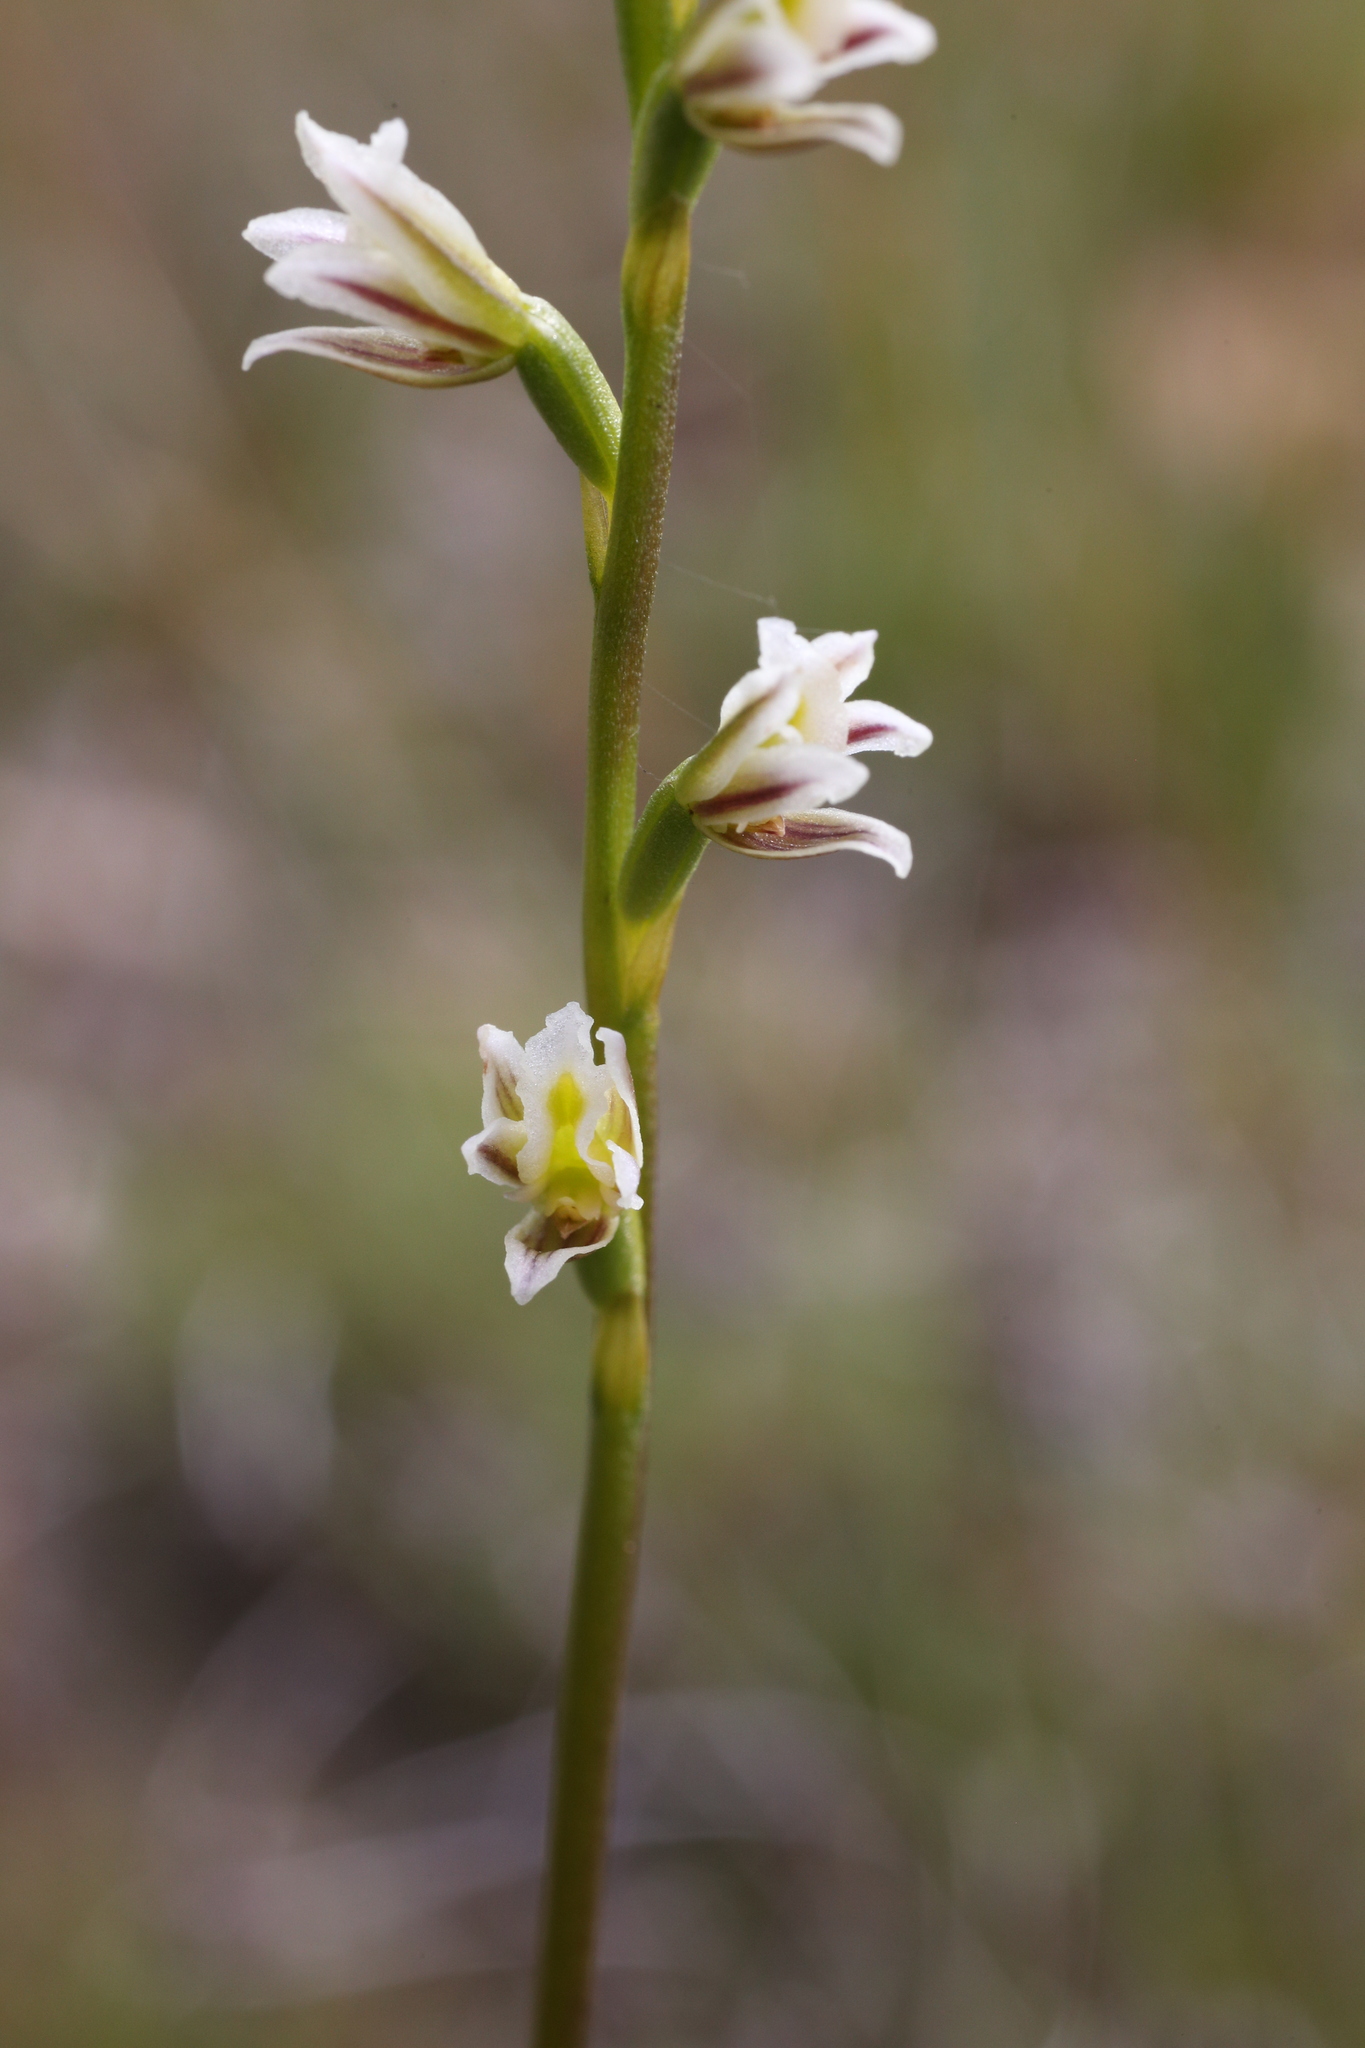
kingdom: Plantae
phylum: Tracheophyta
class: Liliopsida
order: Asparagales
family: Orchidaceae
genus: Prasophyllum
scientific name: Prasophyllum cyphochilum
